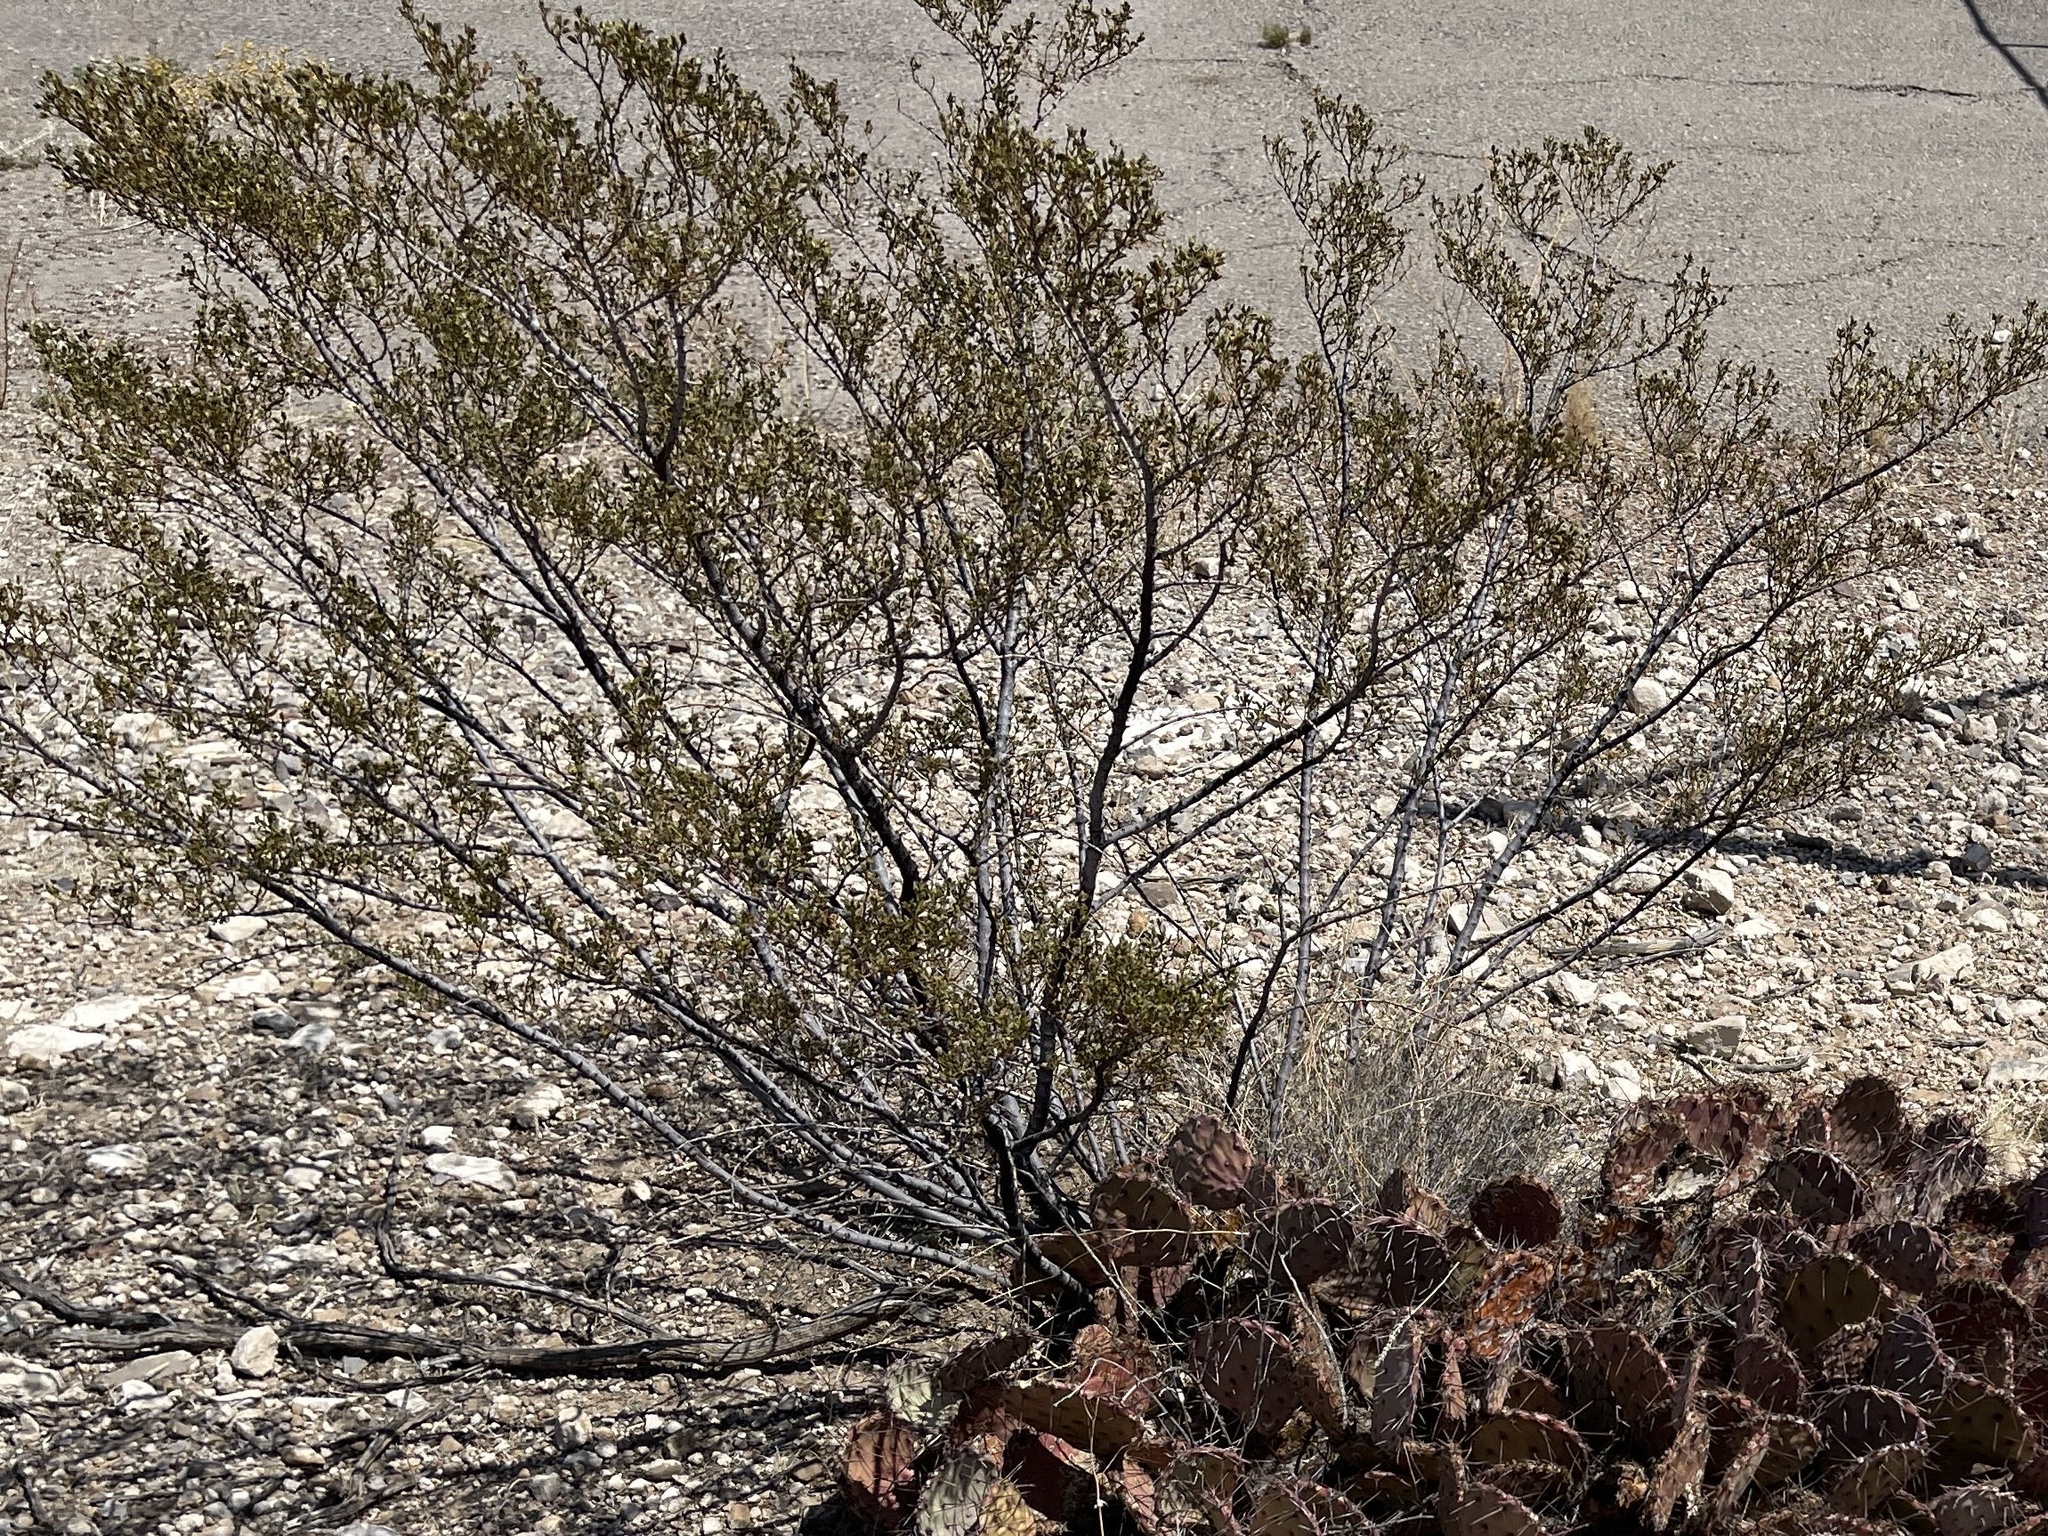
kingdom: Plantae
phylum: Tracheophyta
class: Magnoliopsida
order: Zygophyllales
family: Zygophyllaceae
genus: Larrea
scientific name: Larrea tridentata
